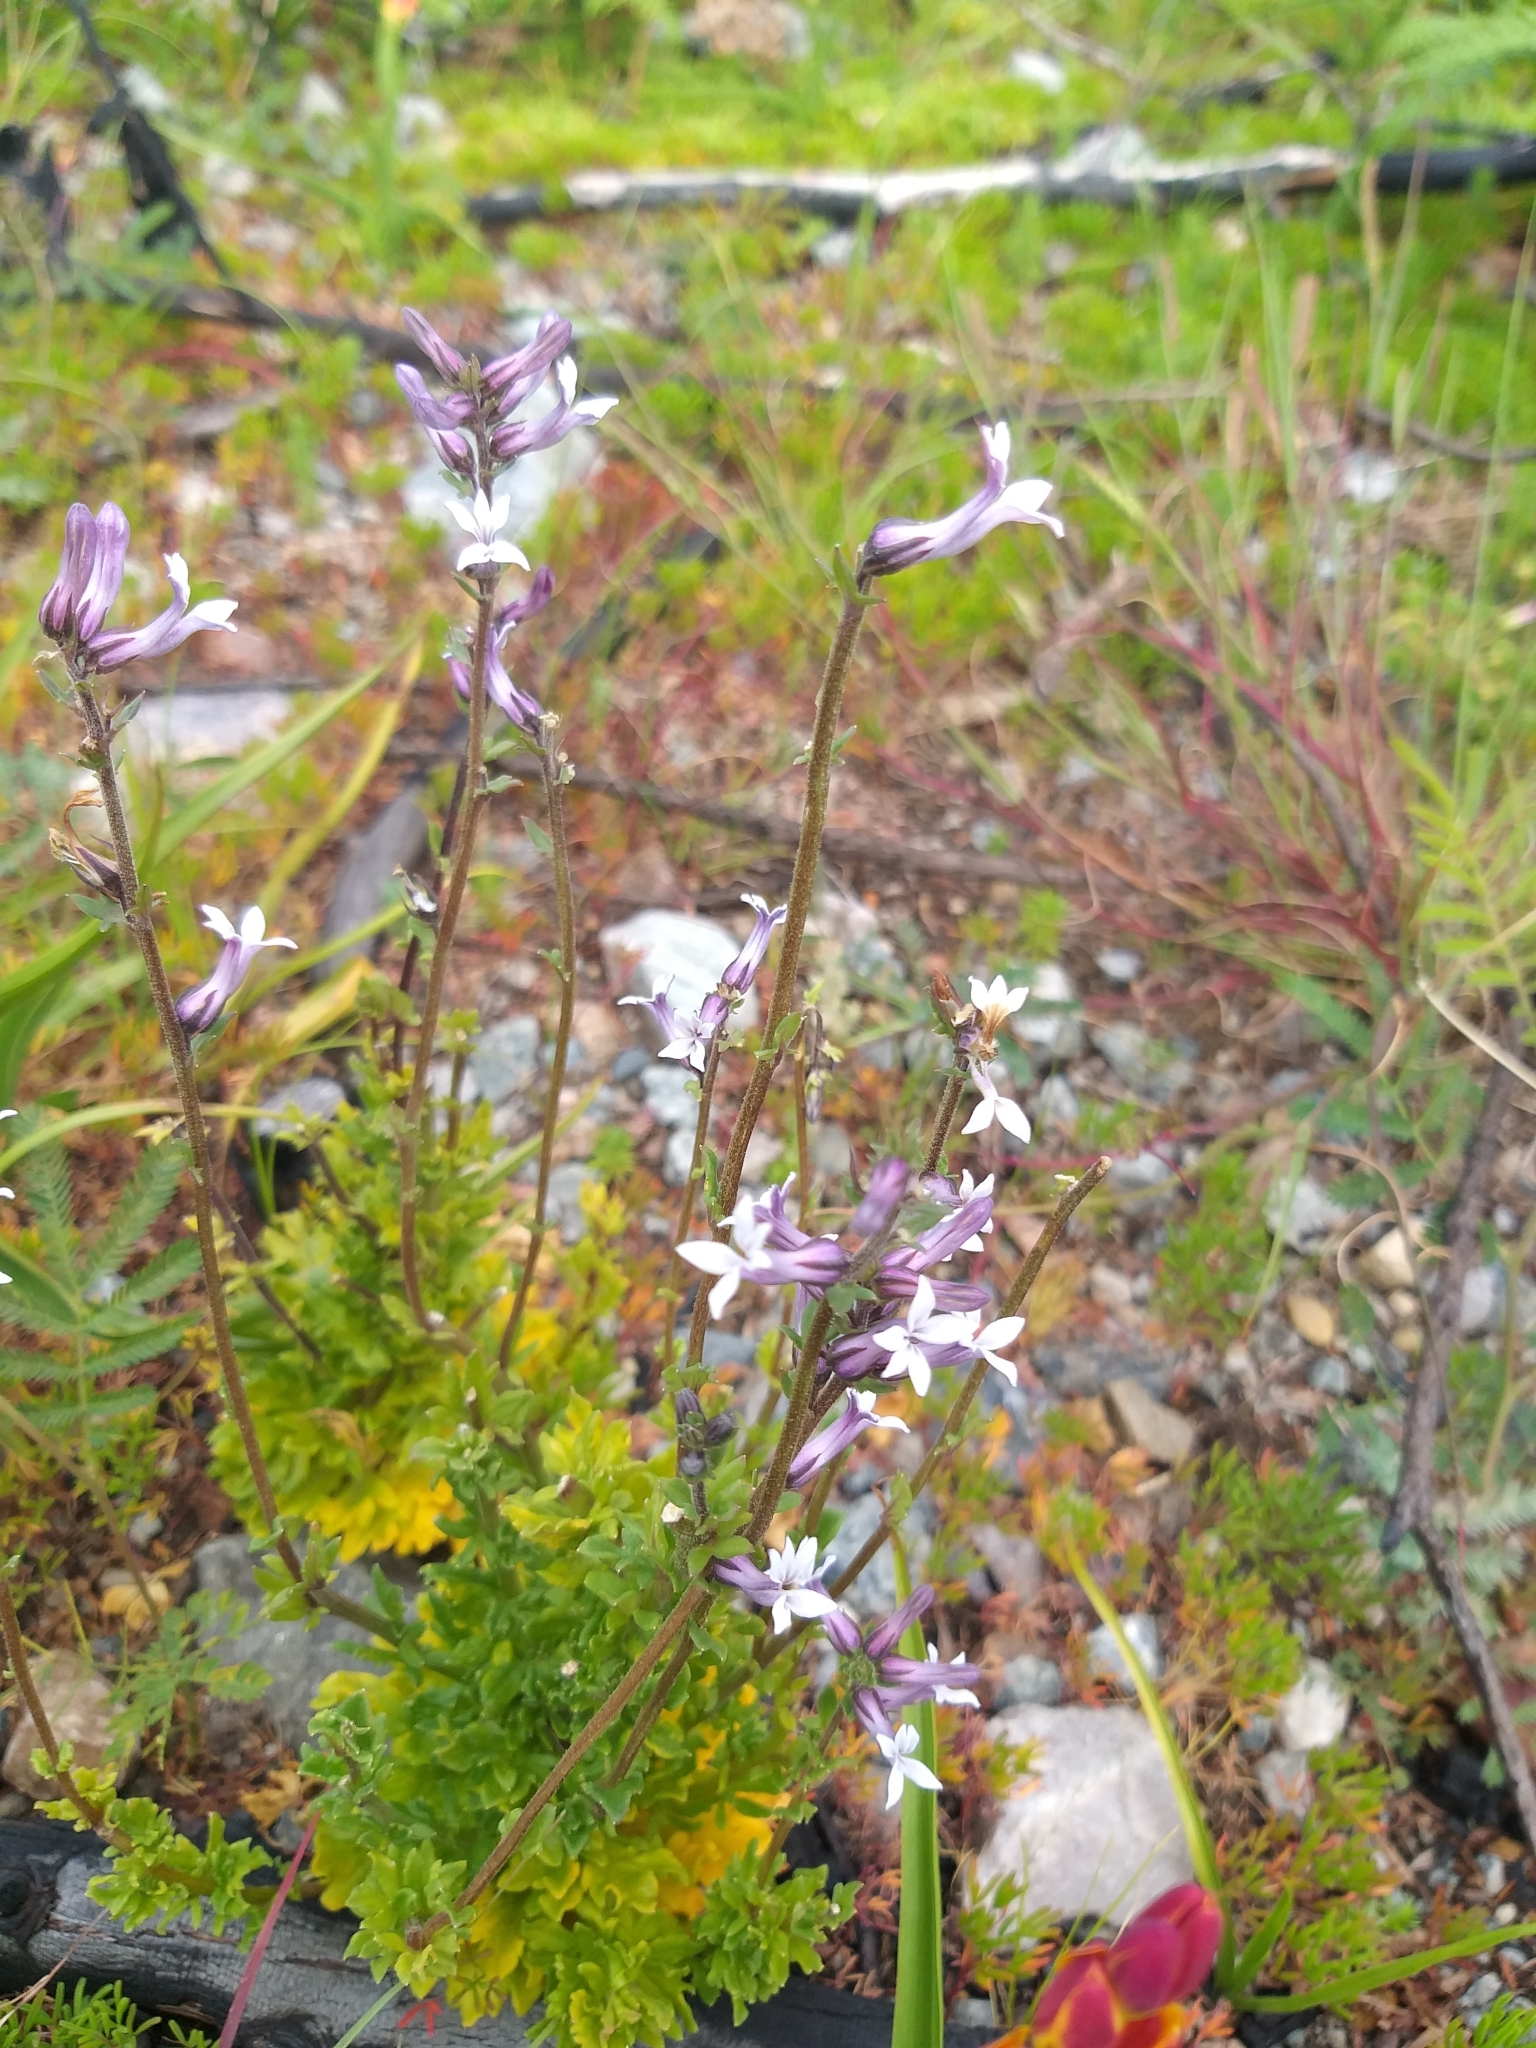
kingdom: Plantae
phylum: Tracheophyta
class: Magnoliopsida
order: Asterales
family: Campanulaceae
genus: Cyphia
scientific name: Cyphia bulbosa
